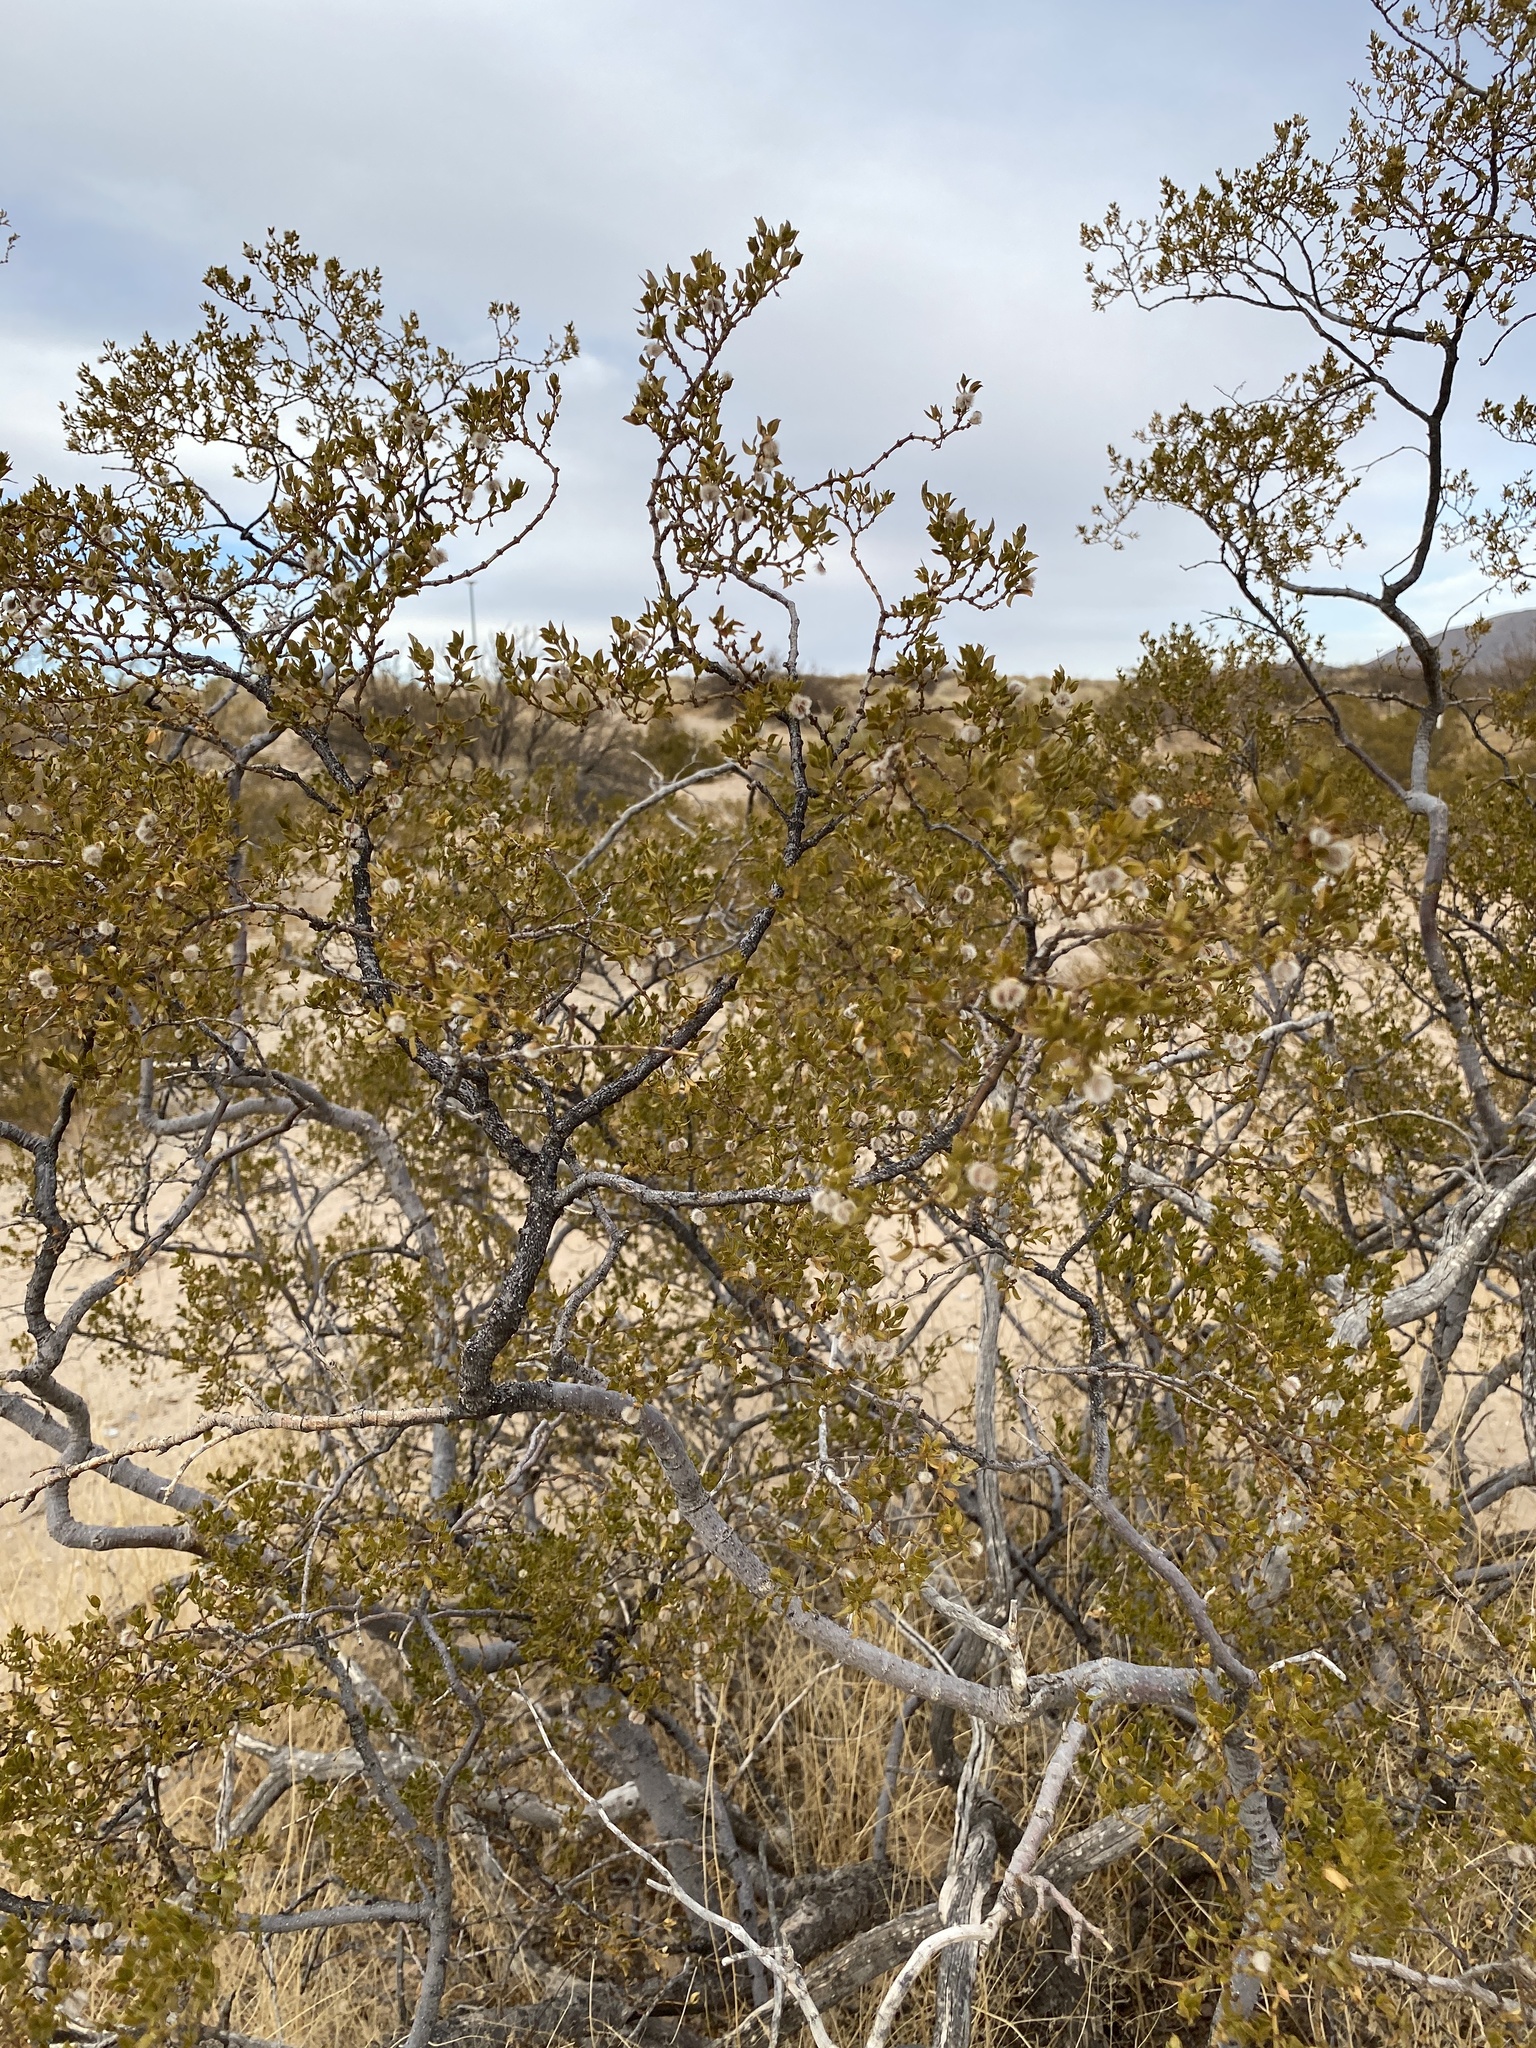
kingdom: Plantae
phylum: Tracheophyta
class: Magnoliopsida
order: Zygophyllales
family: Zygophyllaceae
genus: Larrea
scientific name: Larrea tridentata
